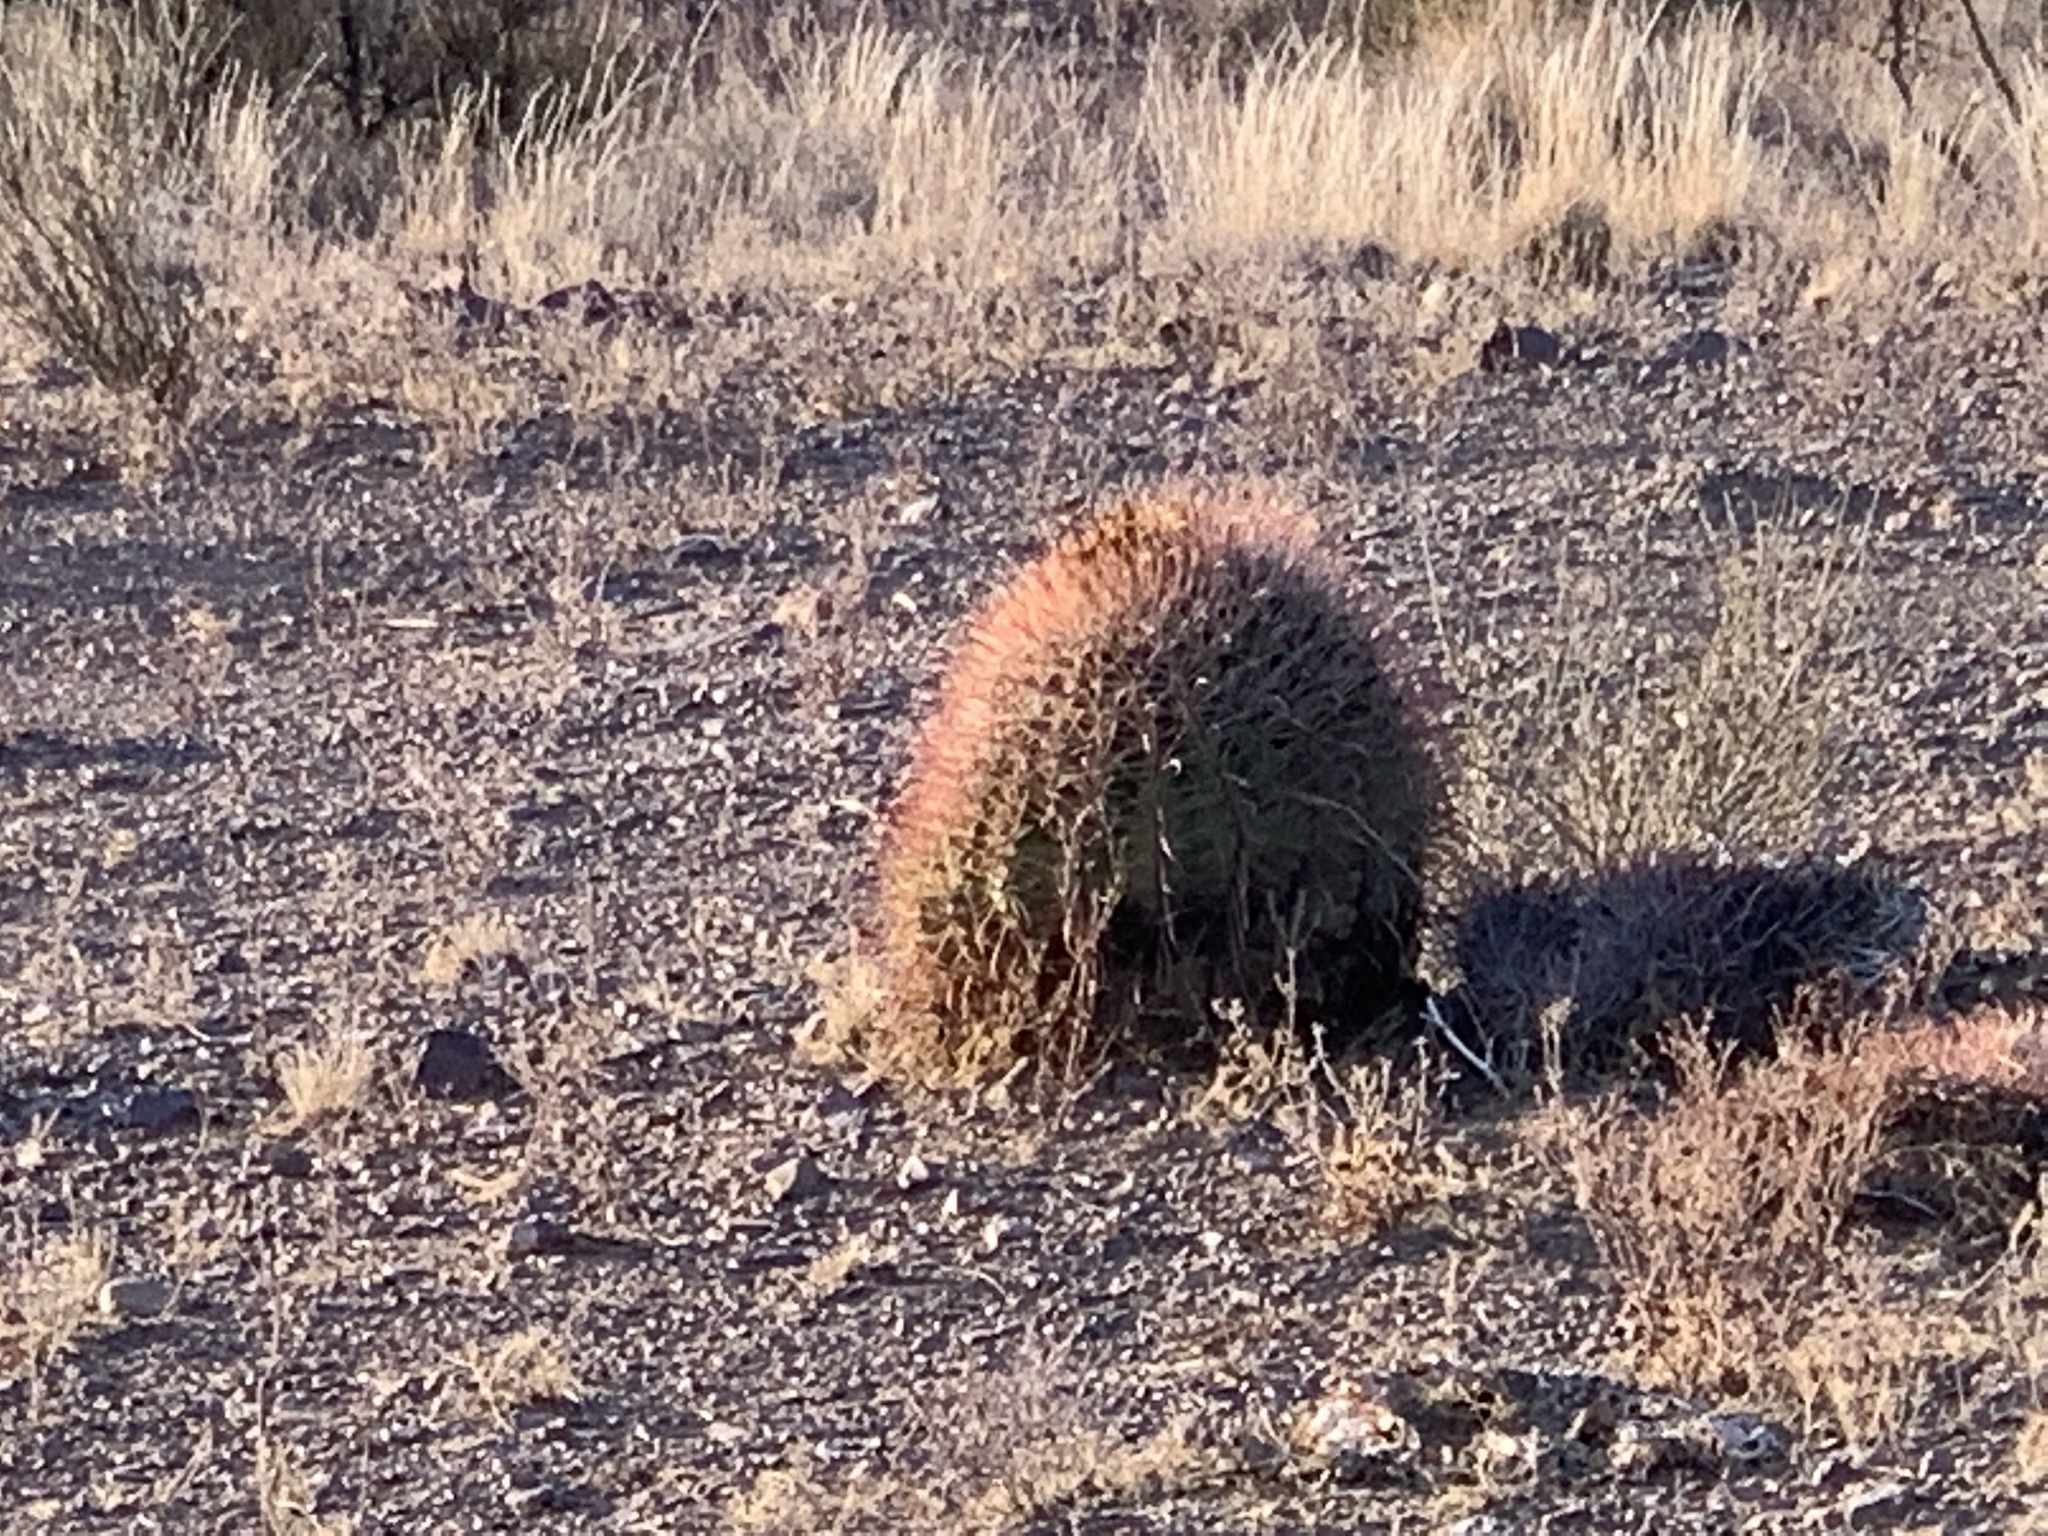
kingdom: Plantae
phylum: Tracheophyta
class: Magnoliopsida
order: Caryophyllales
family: Cactaceae
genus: Ferocactus
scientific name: Ferocactus wislizeni
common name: Candy barrel cactus
